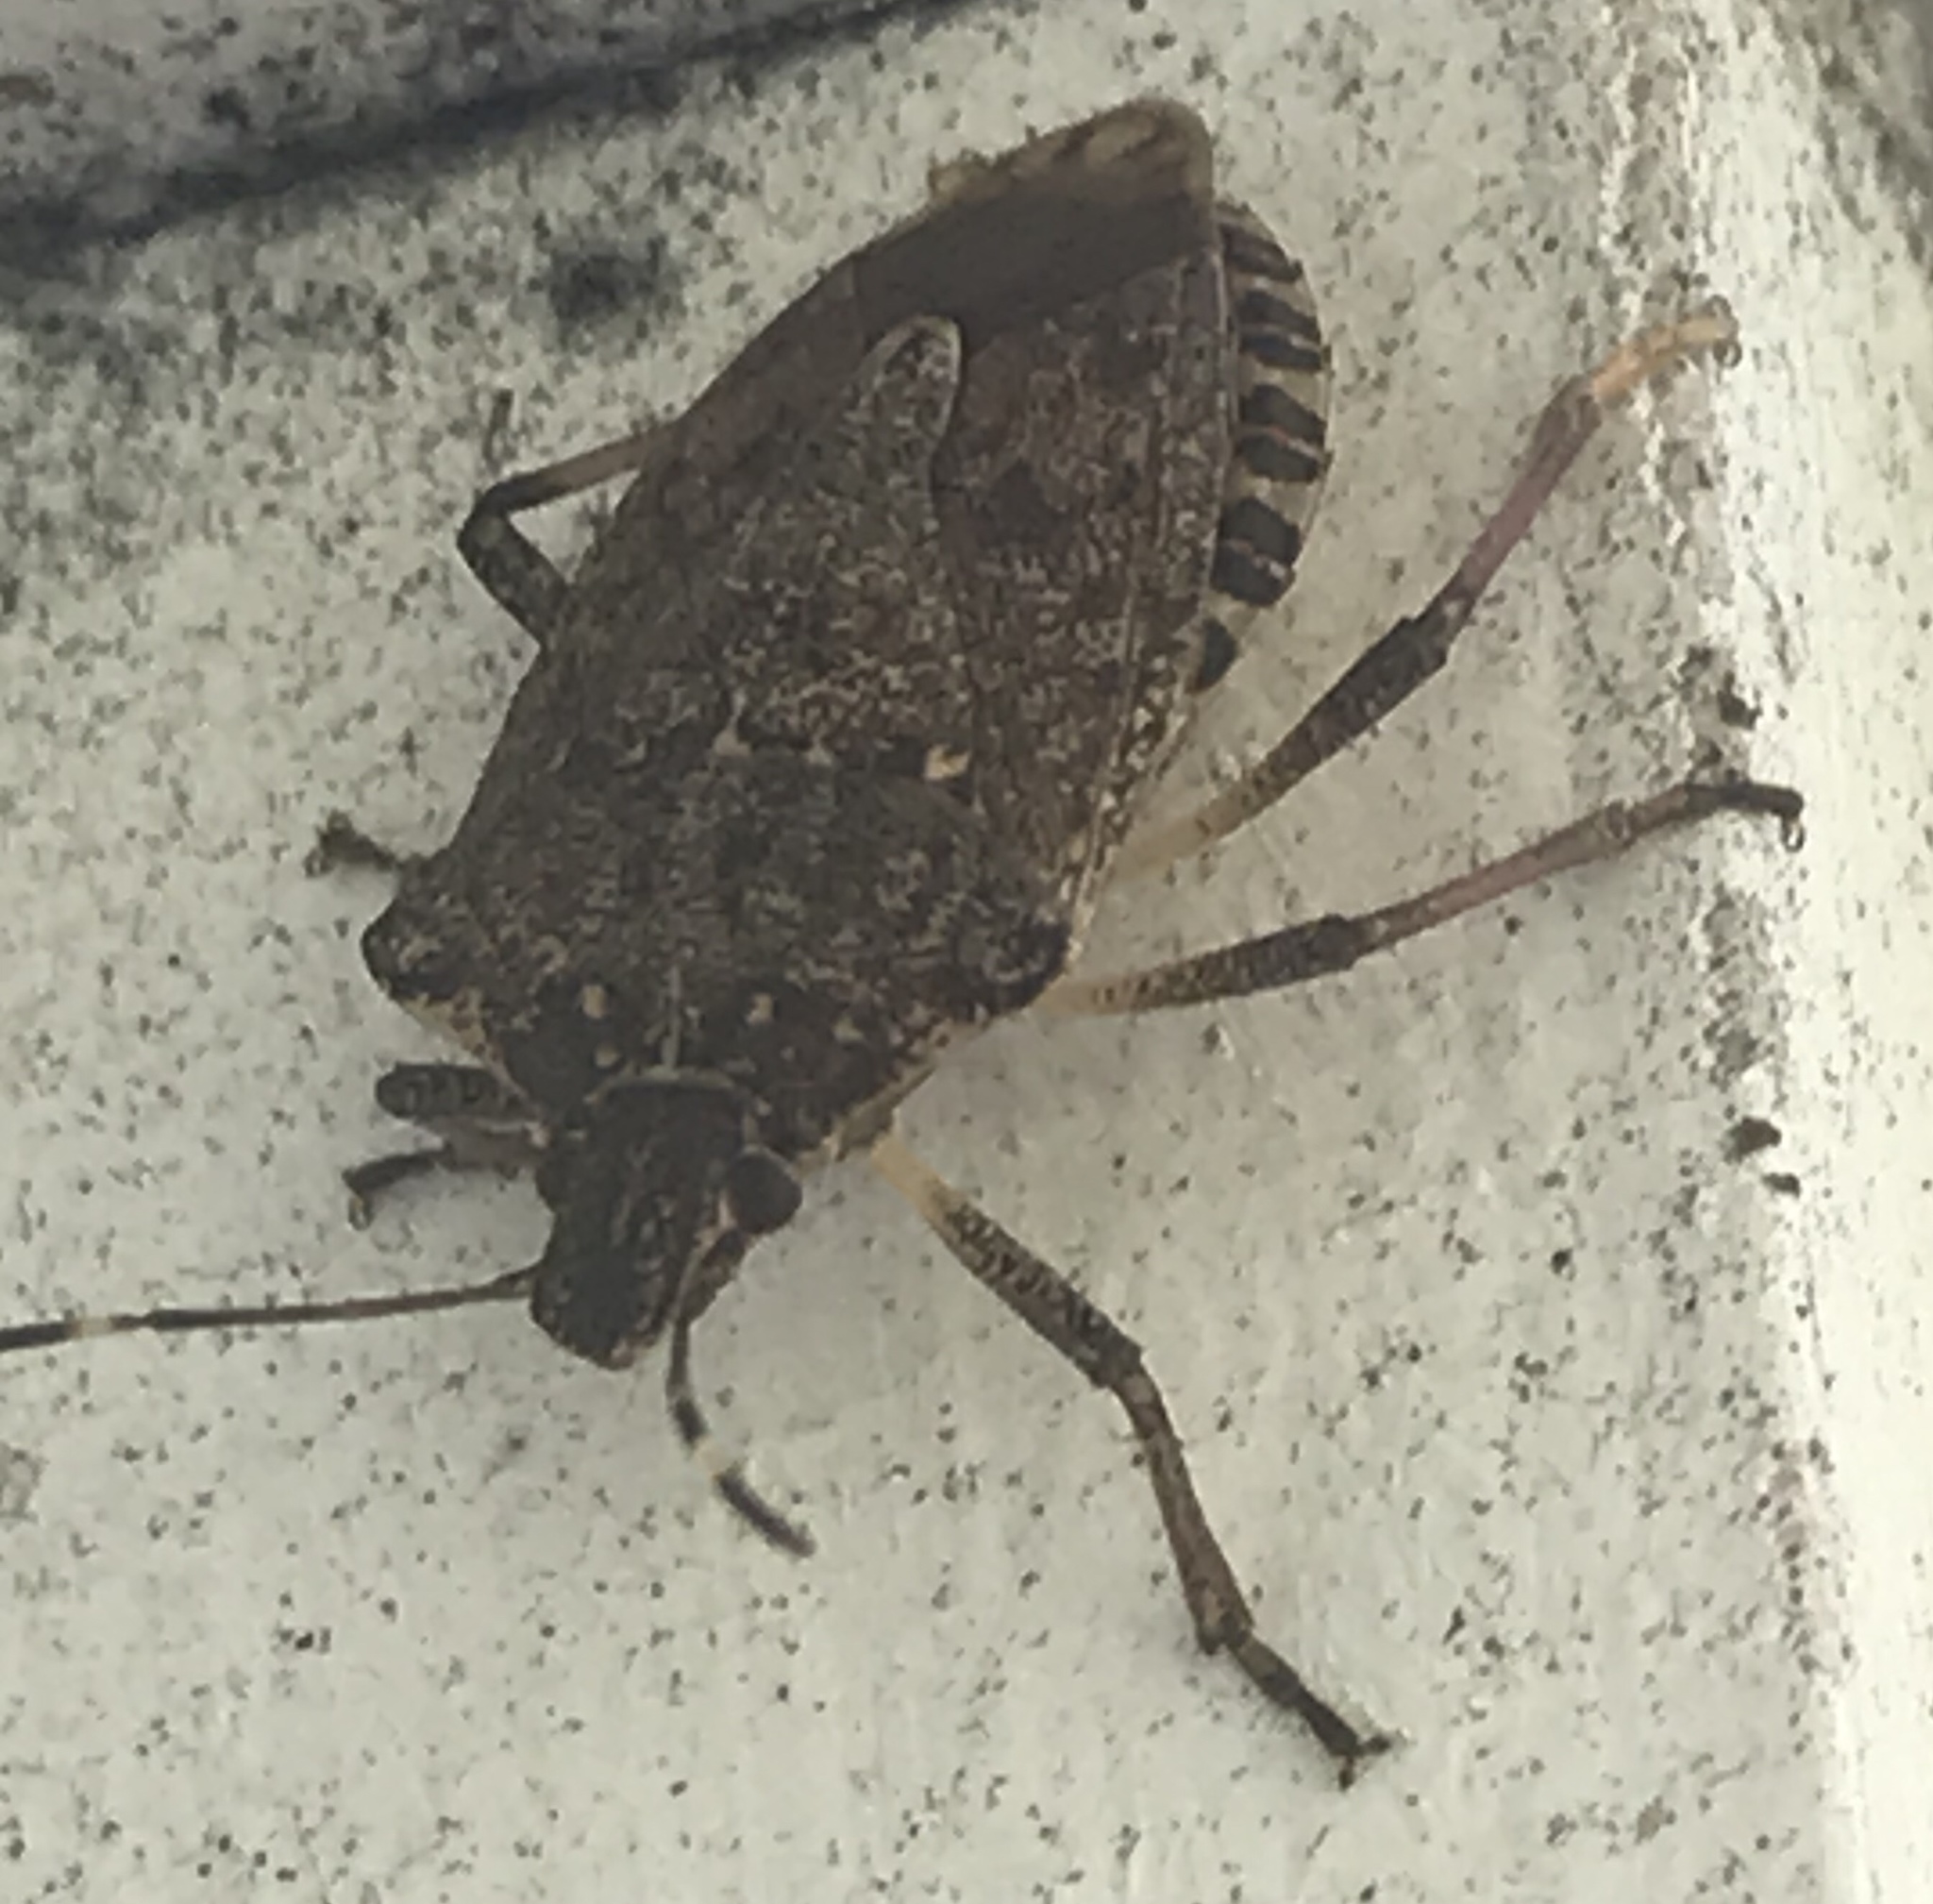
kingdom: Animalia
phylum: Arthropoda
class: Insecta
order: Hemiptera
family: Pentatomidae
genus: Halyomorpha
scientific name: Halyomorpha halys
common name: Brown marmorated stink bug
